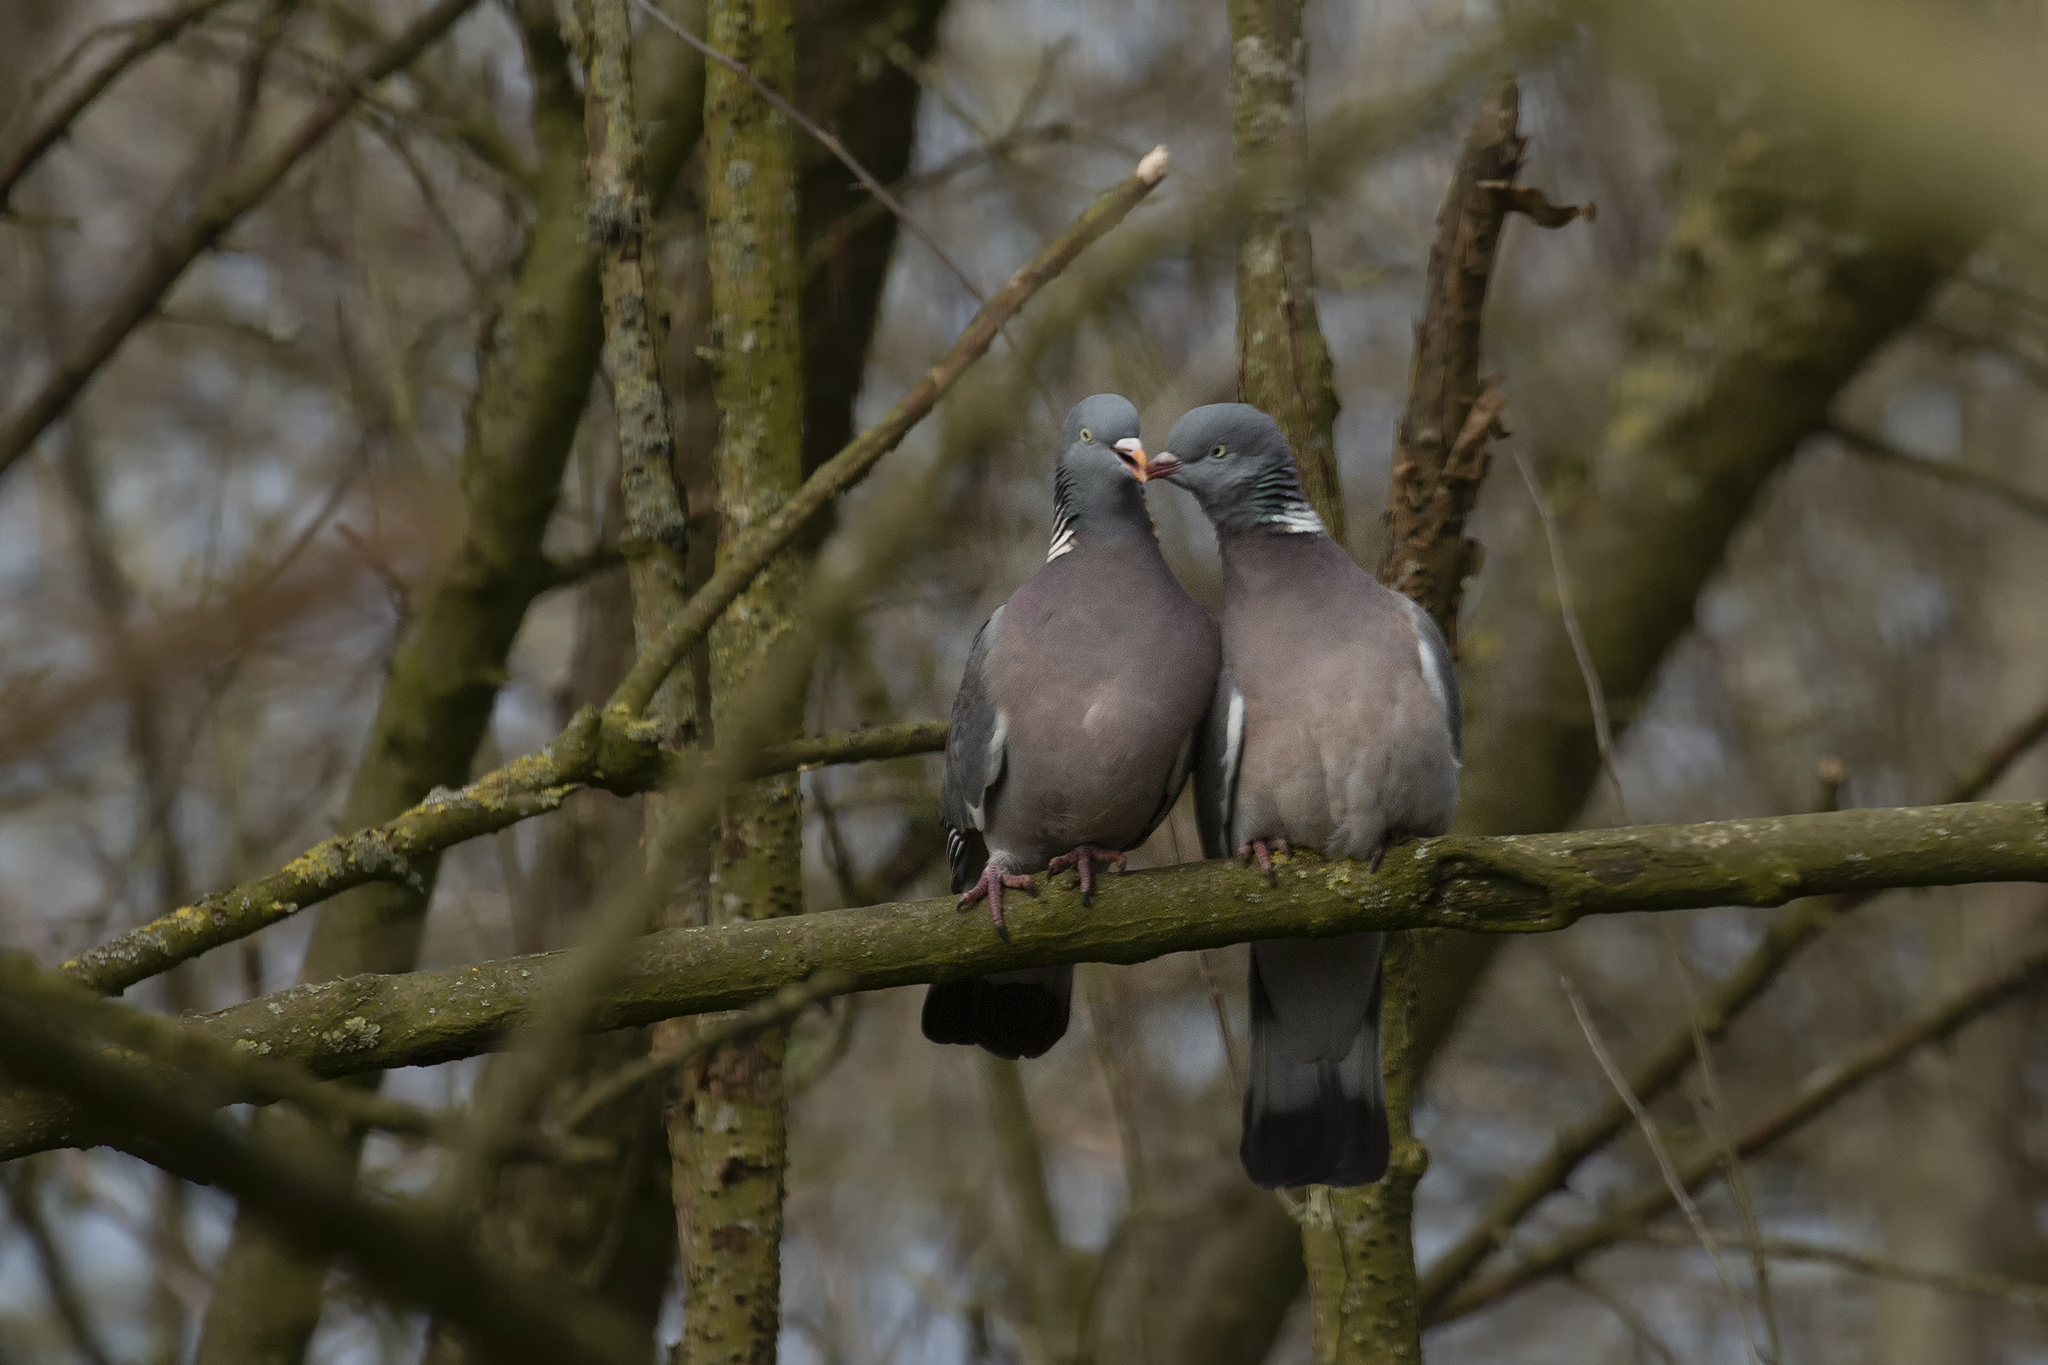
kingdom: Animalia
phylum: Chordata
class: Aves
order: Columbiformes
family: Columbidae
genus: Columba
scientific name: Columba palumbus
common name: Common wood pigeon
